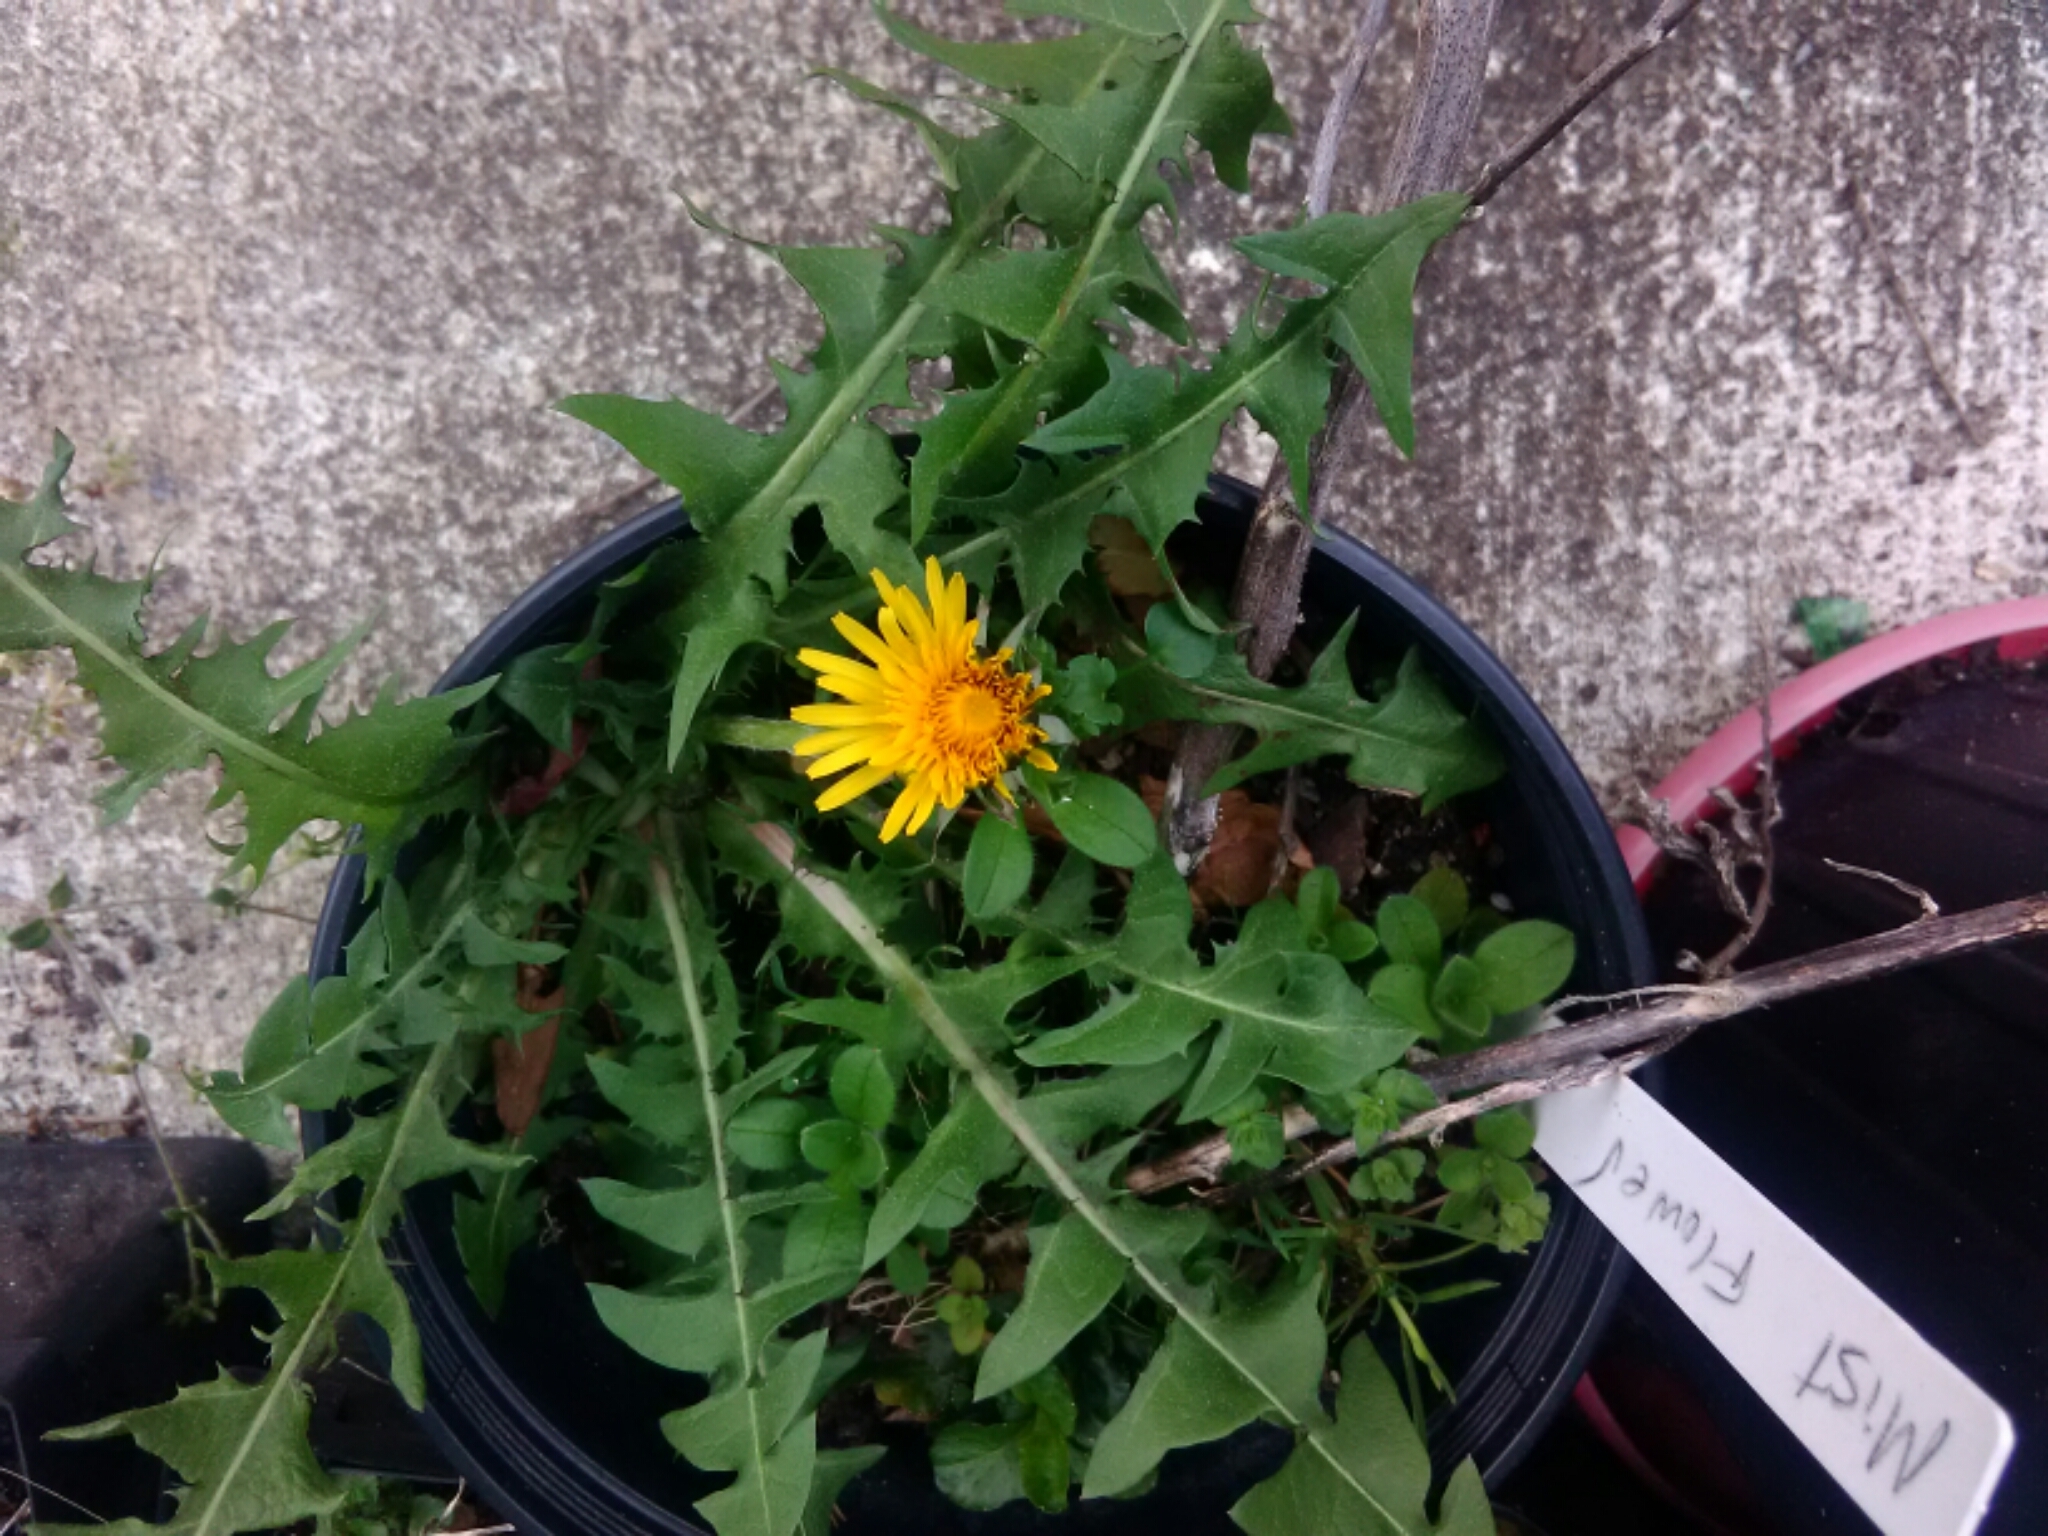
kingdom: Plantae
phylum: Tracheophyta
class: Magnoliopsida
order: Asterales
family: Asteraceae
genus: Taraxacum
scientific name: Taraxacum officinale
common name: Common dandelion
